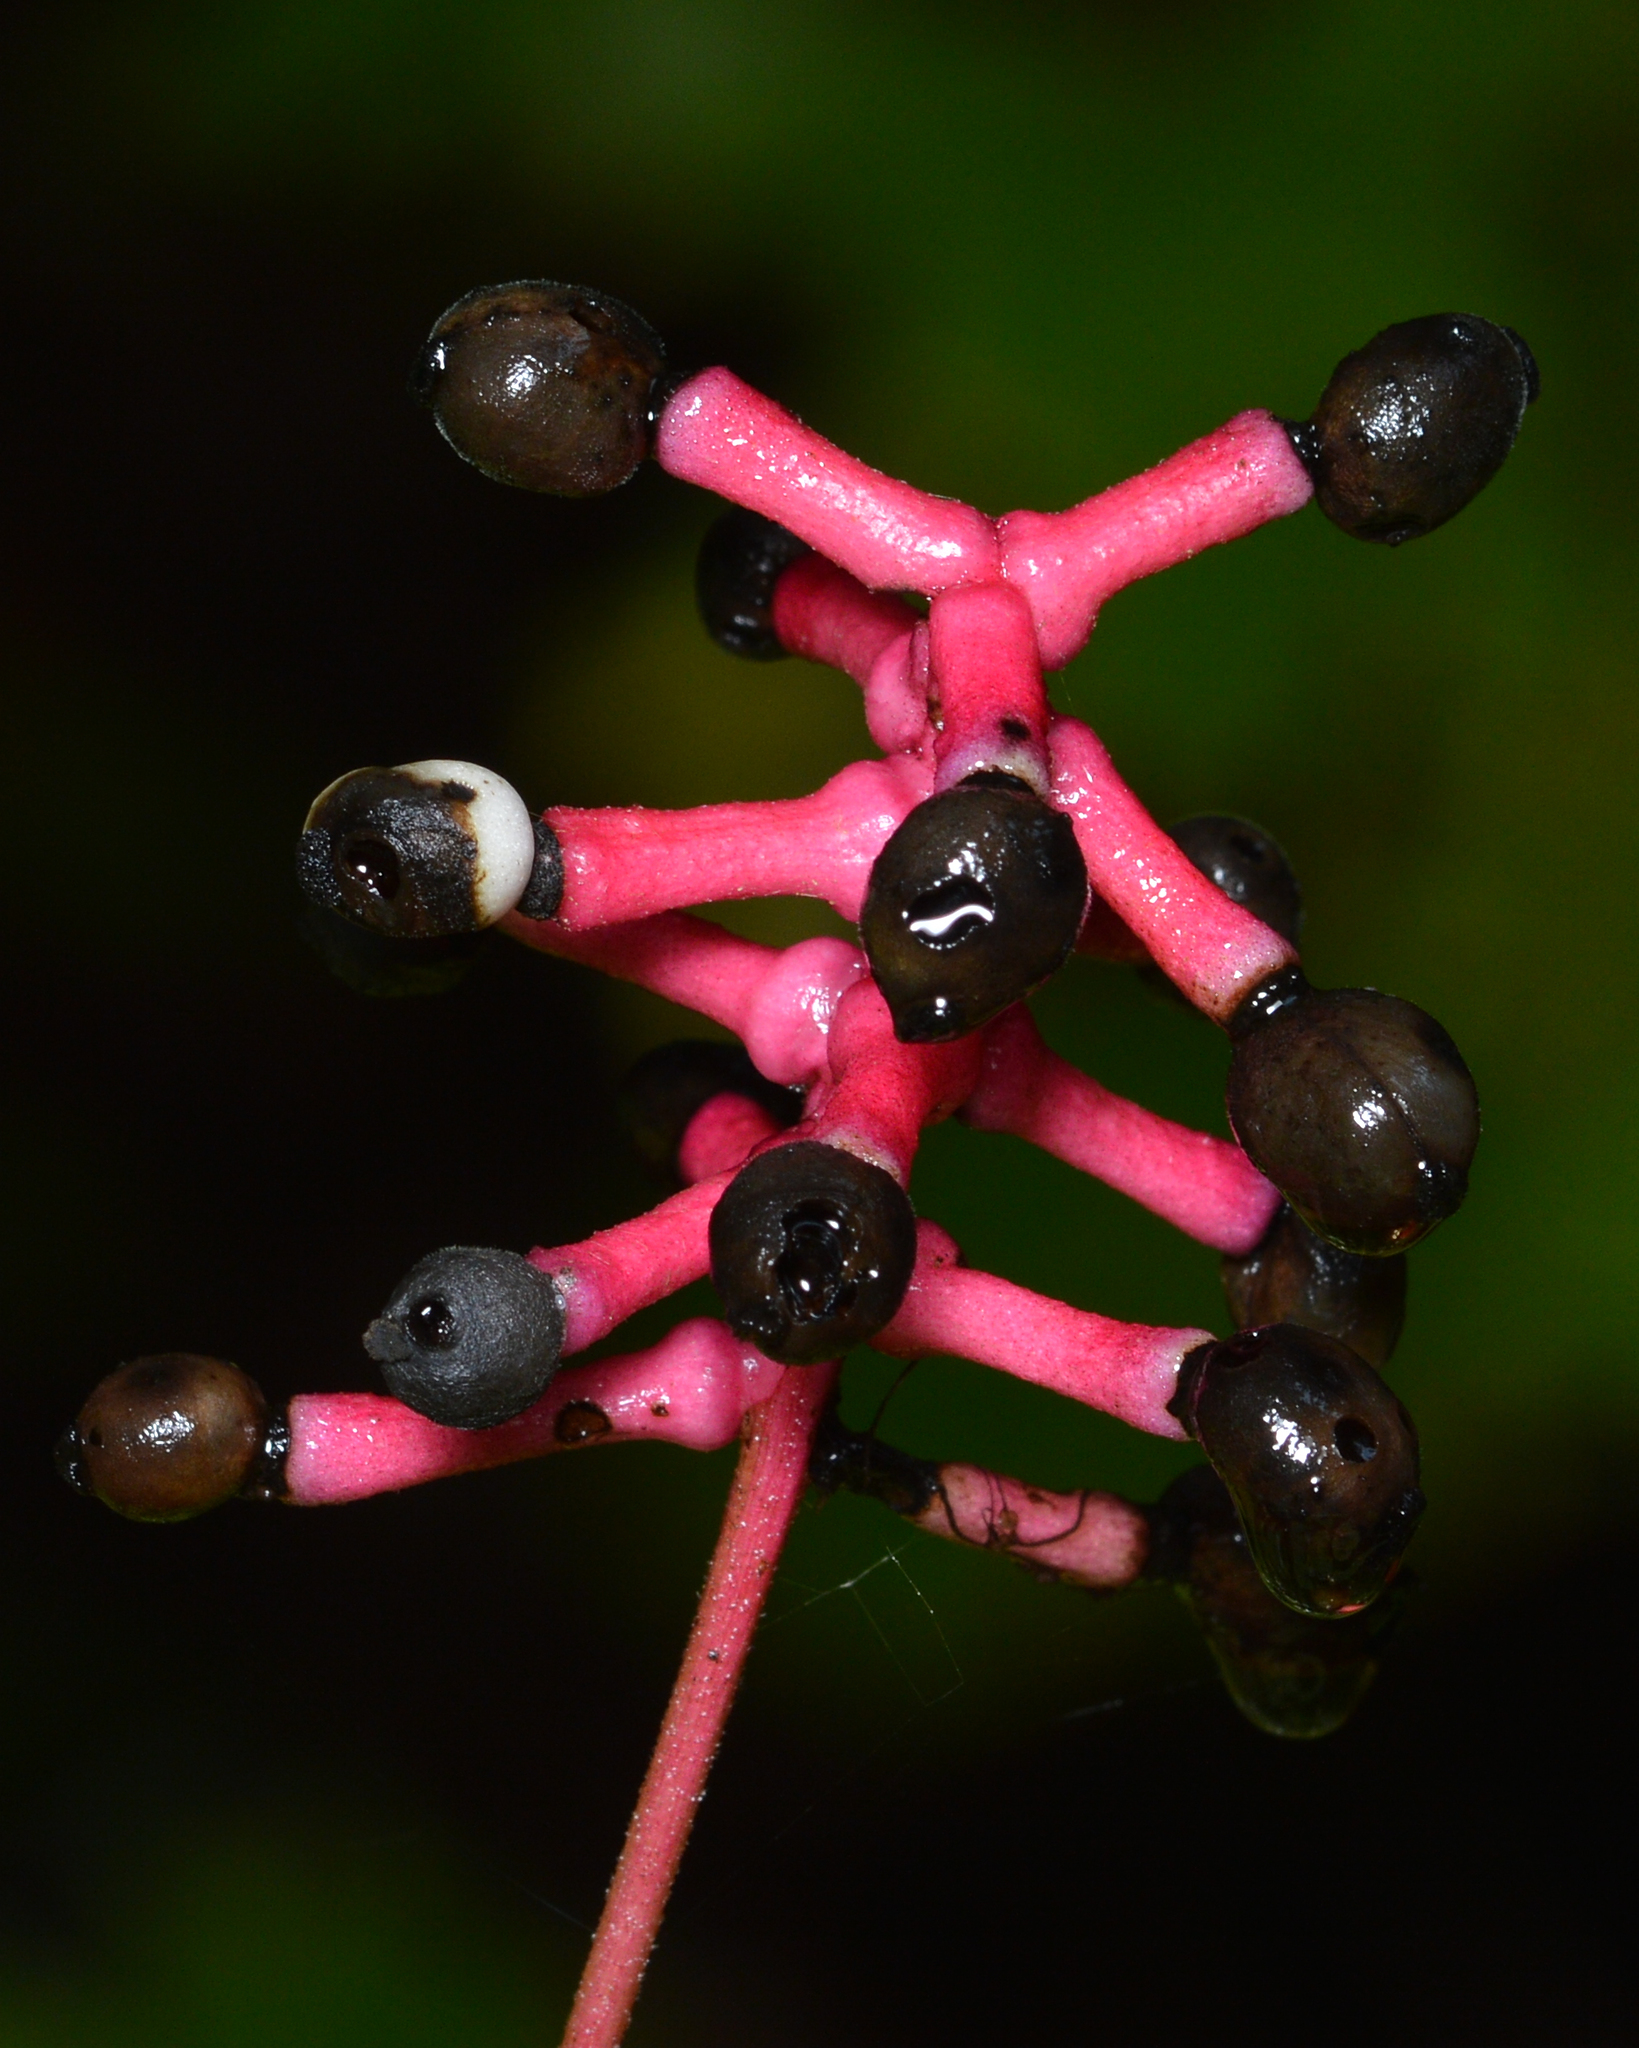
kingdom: Plantae
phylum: Tracheophyta
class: Magnoliopsida
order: Ranunculales
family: Ranunculaceae
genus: Actaea
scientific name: Actaea pachypoda
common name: Doll's-eyes
